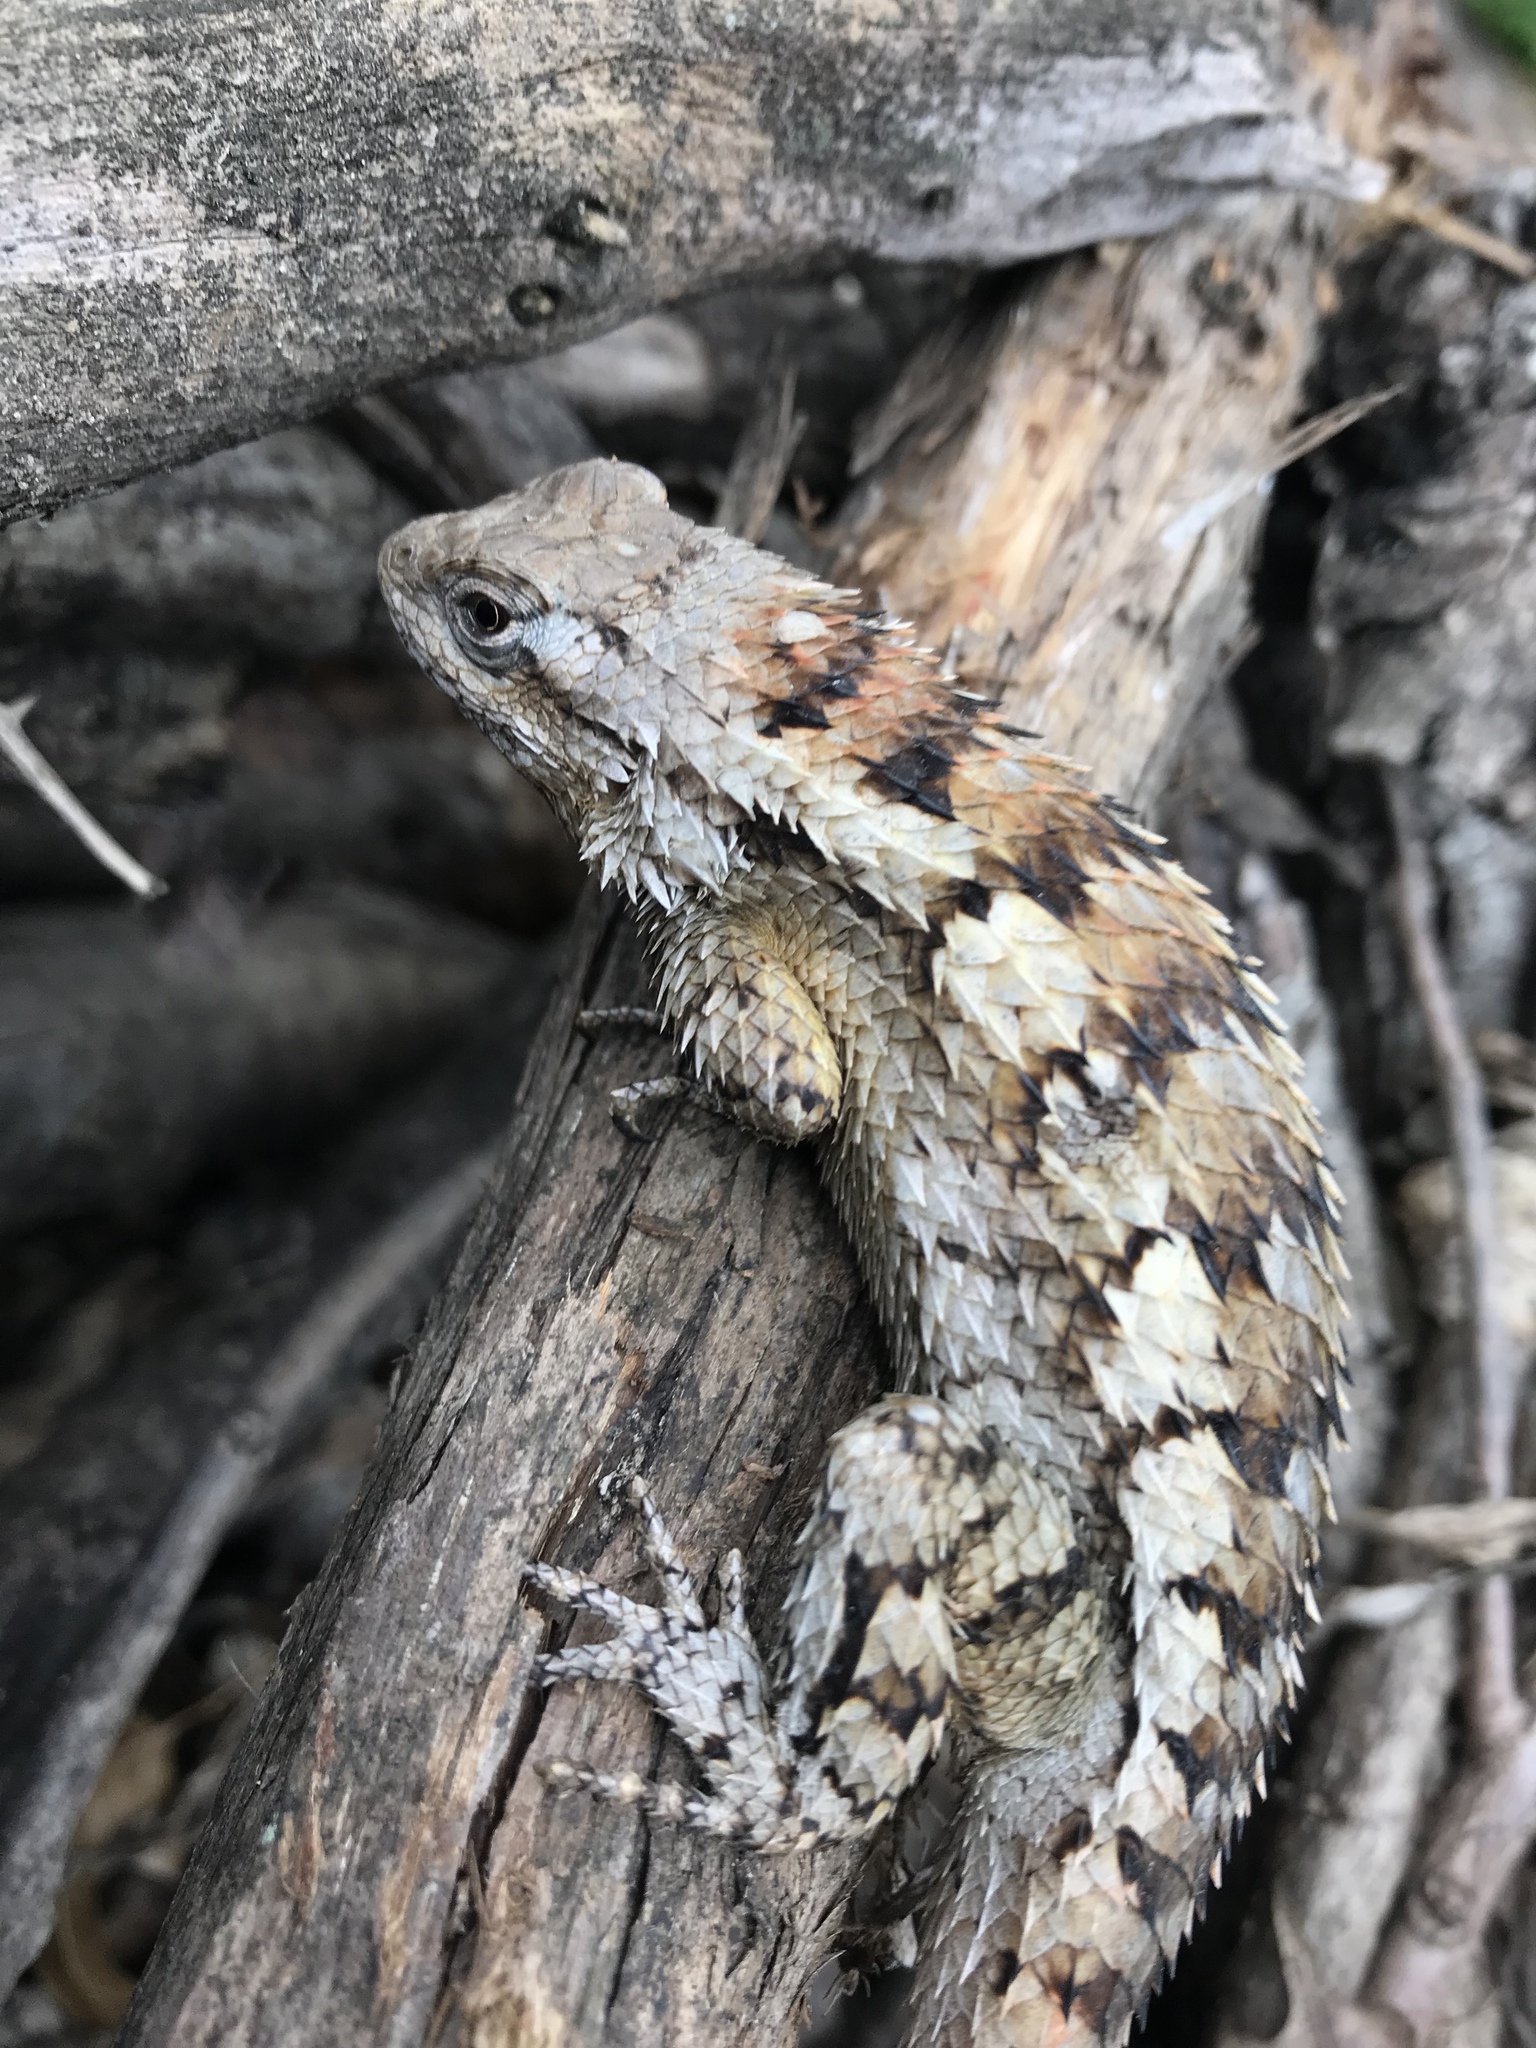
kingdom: Animalia
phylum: Chordata
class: Squamata
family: Phrynosomatidae
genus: Sceloporus
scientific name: Sceloporus olivaceus
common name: Texas spiny lizard
